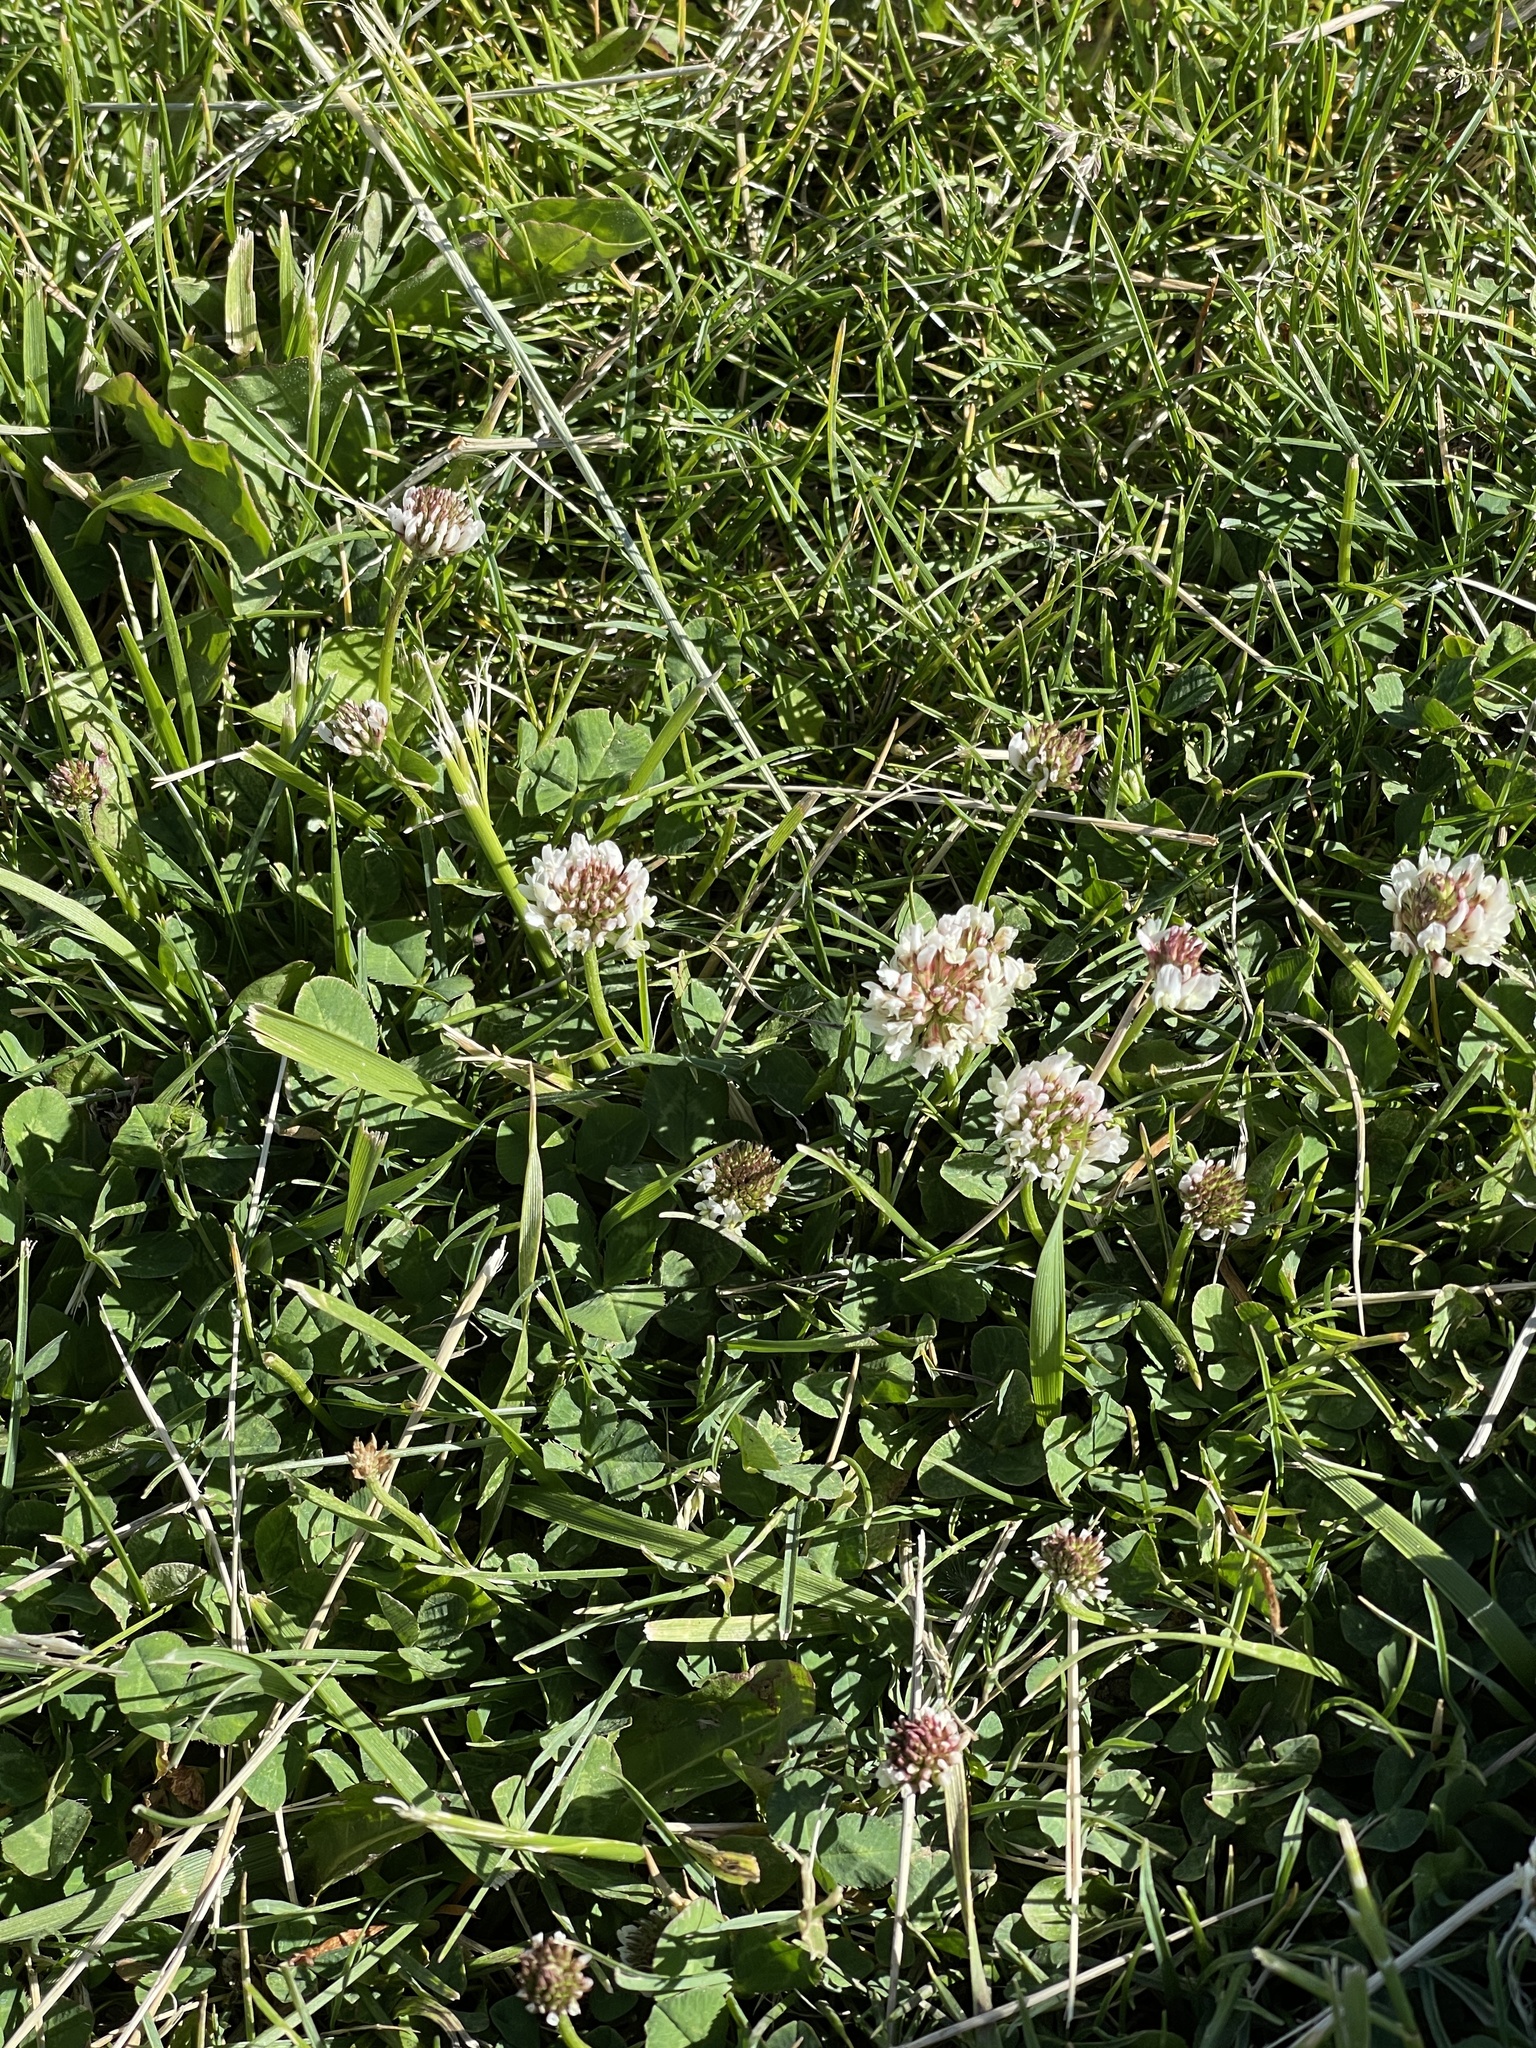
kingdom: Plantae
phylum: Tracheophyta
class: Magnoliopsida
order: Fabales
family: Fabaceae
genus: Trifolium
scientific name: Trifolium repens
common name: White clover
